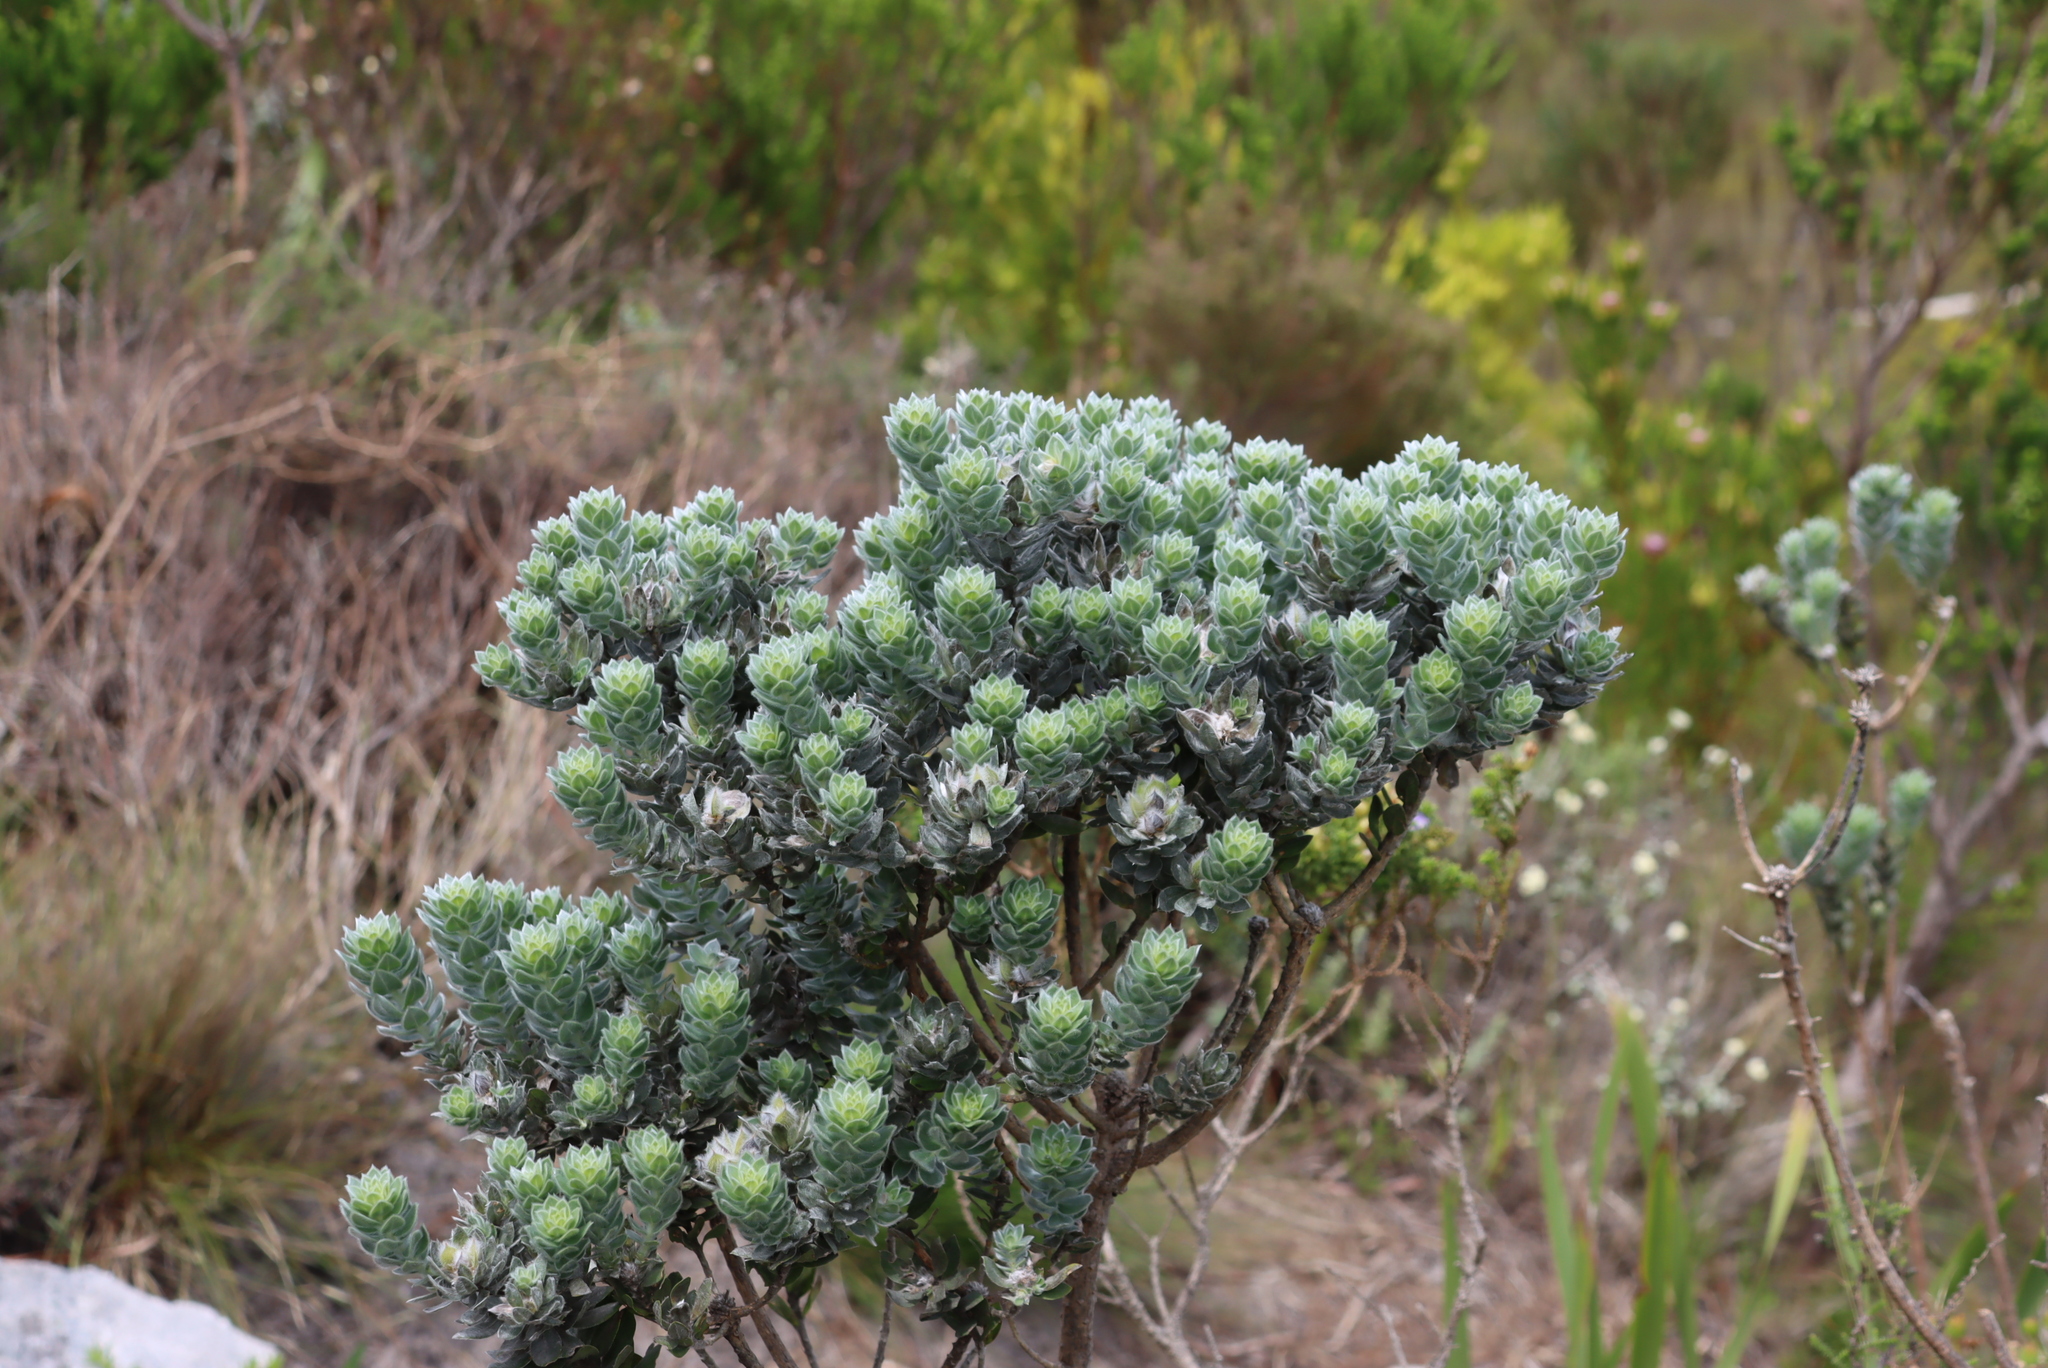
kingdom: Plantae
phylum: Tracheophyta
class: Magnoliopsida
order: Fabales
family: Fabaceae
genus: Xiphotheca
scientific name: Xiphotheca fruticosa
